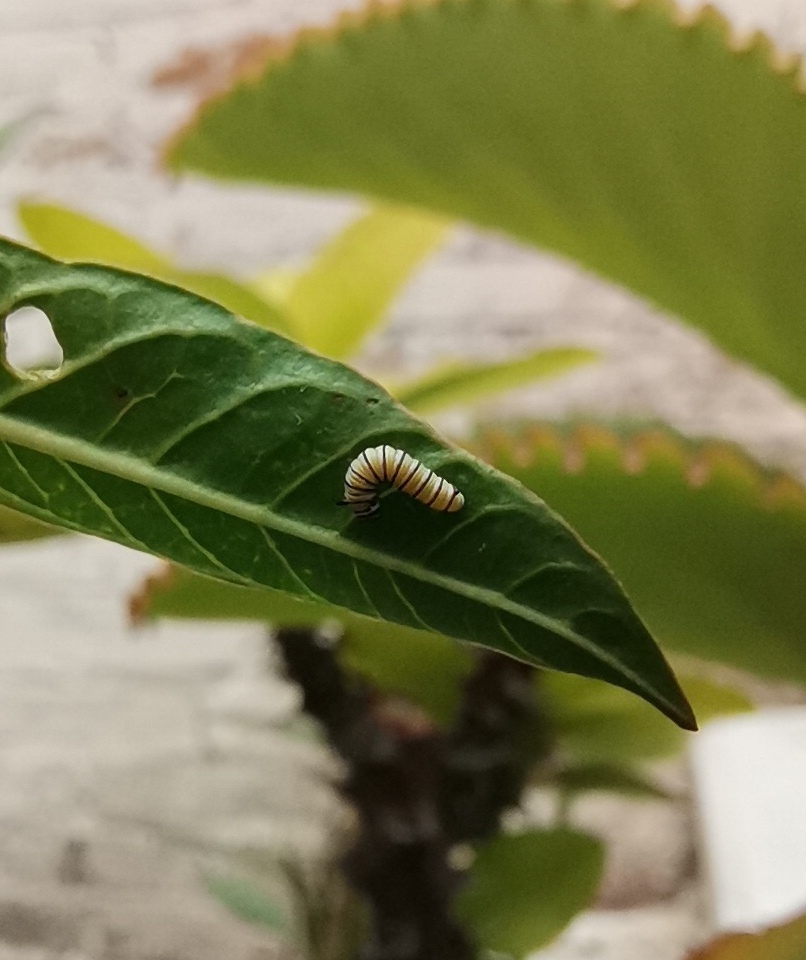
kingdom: Animalia
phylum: Arthropoda
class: Insecta
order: Lepidoptera
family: Nymphalidae
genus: Danaus
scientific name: Danaus plexippus
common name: Monarch
